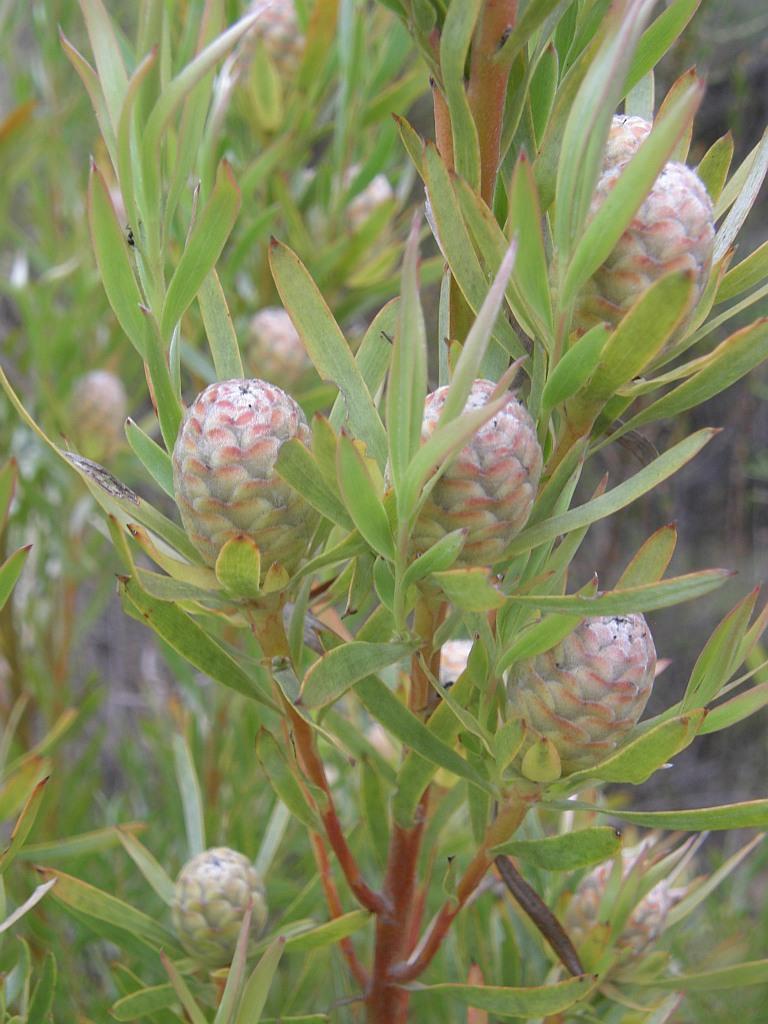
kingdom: Plantae
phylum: Tracheophyta
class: Magnoliopsida
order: Proteales
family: Proteaceae
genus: Leucadendron
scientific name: Leucadendron xanthoconus
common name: Sickle-leaf conebush
